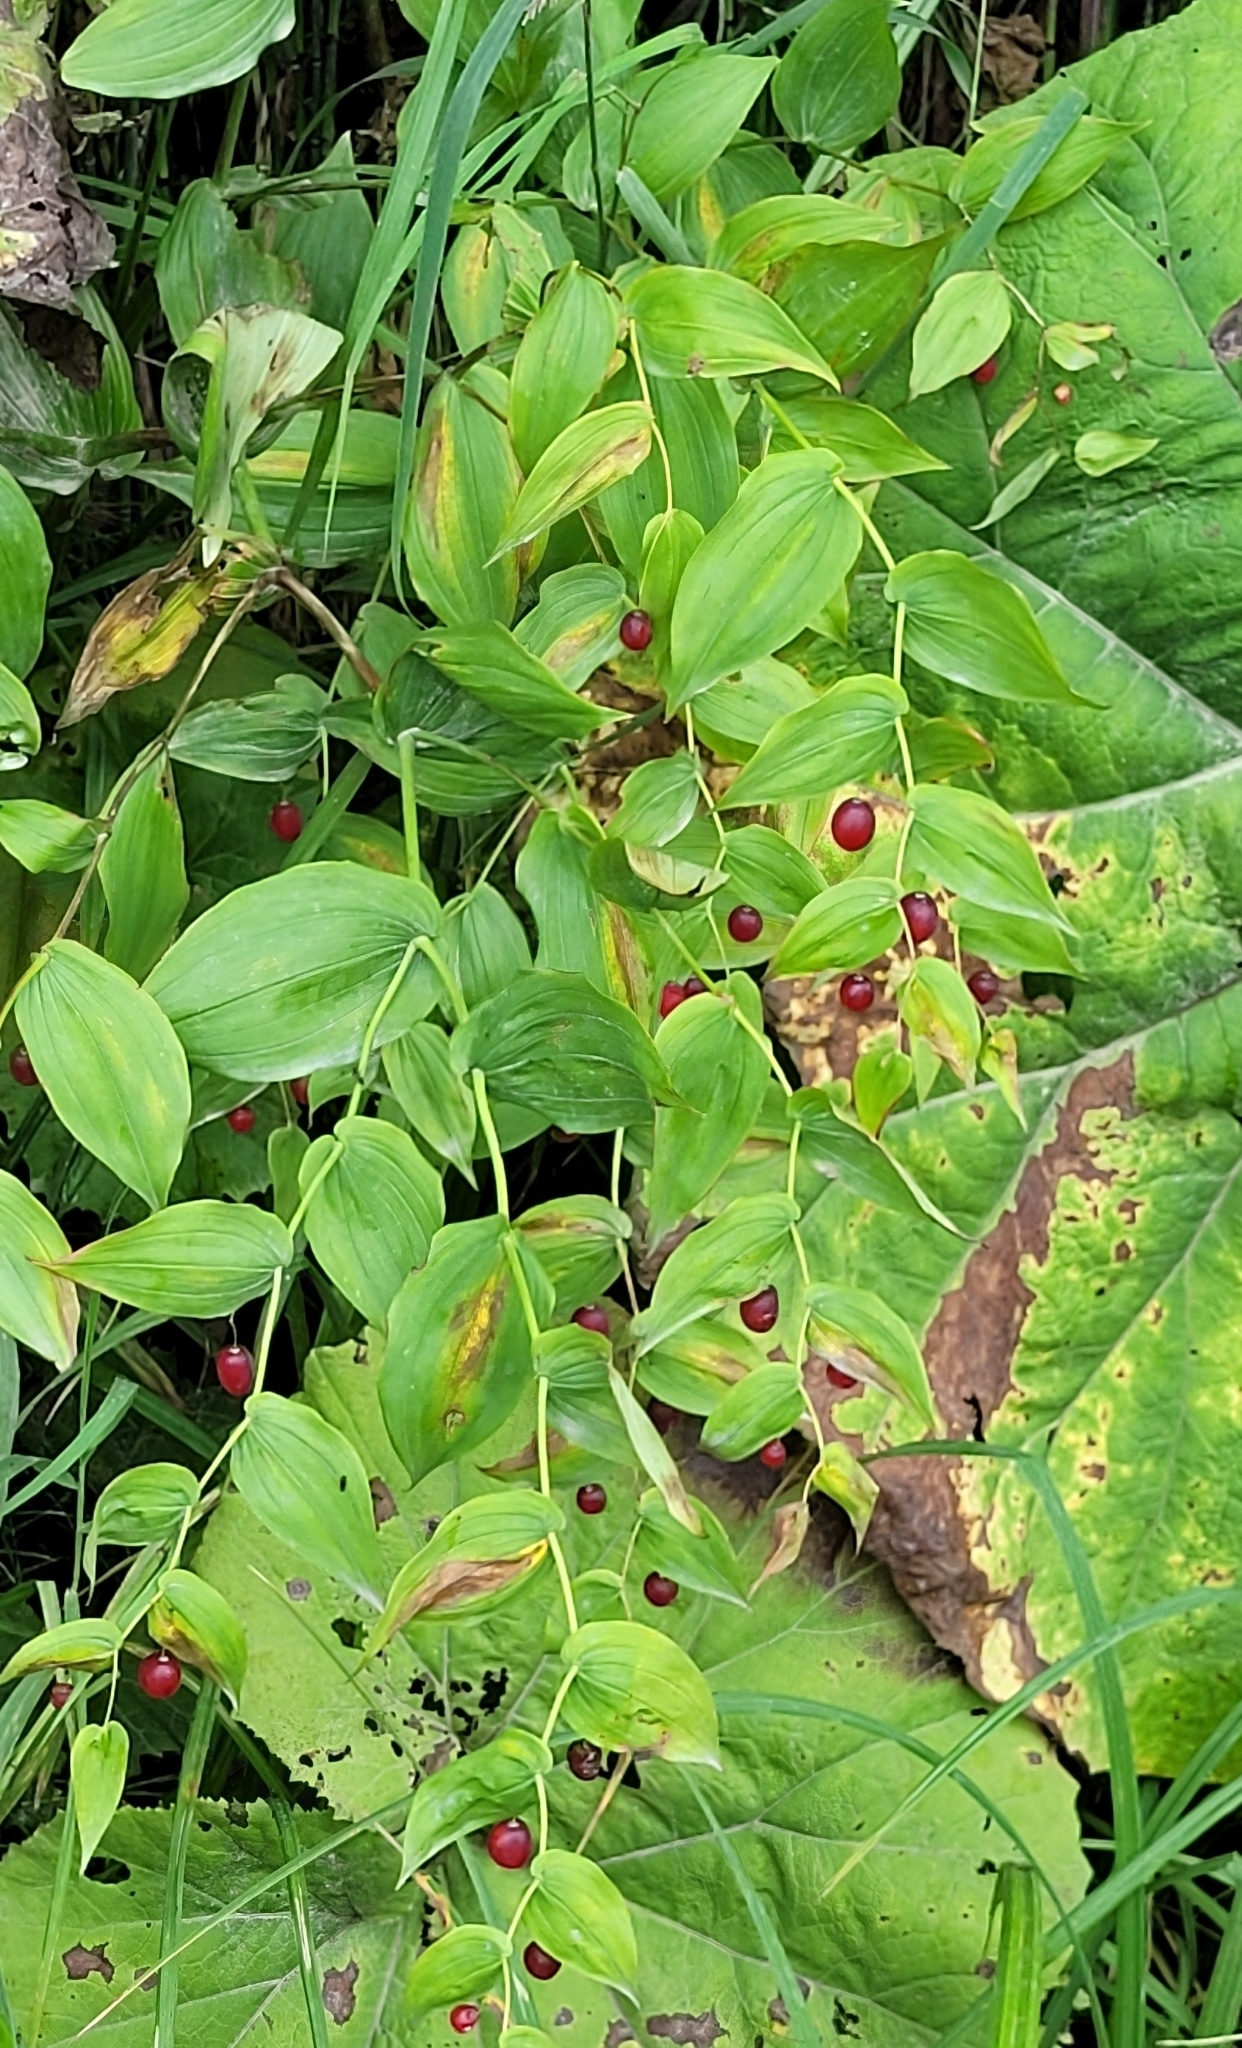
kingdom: Plantae
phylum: Tracheophyta
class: Liliopsida
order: Liliales
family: Liliaceae
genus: Streptopus
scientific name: Streptopus amplexifolius
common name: Clasp twisted stalk
